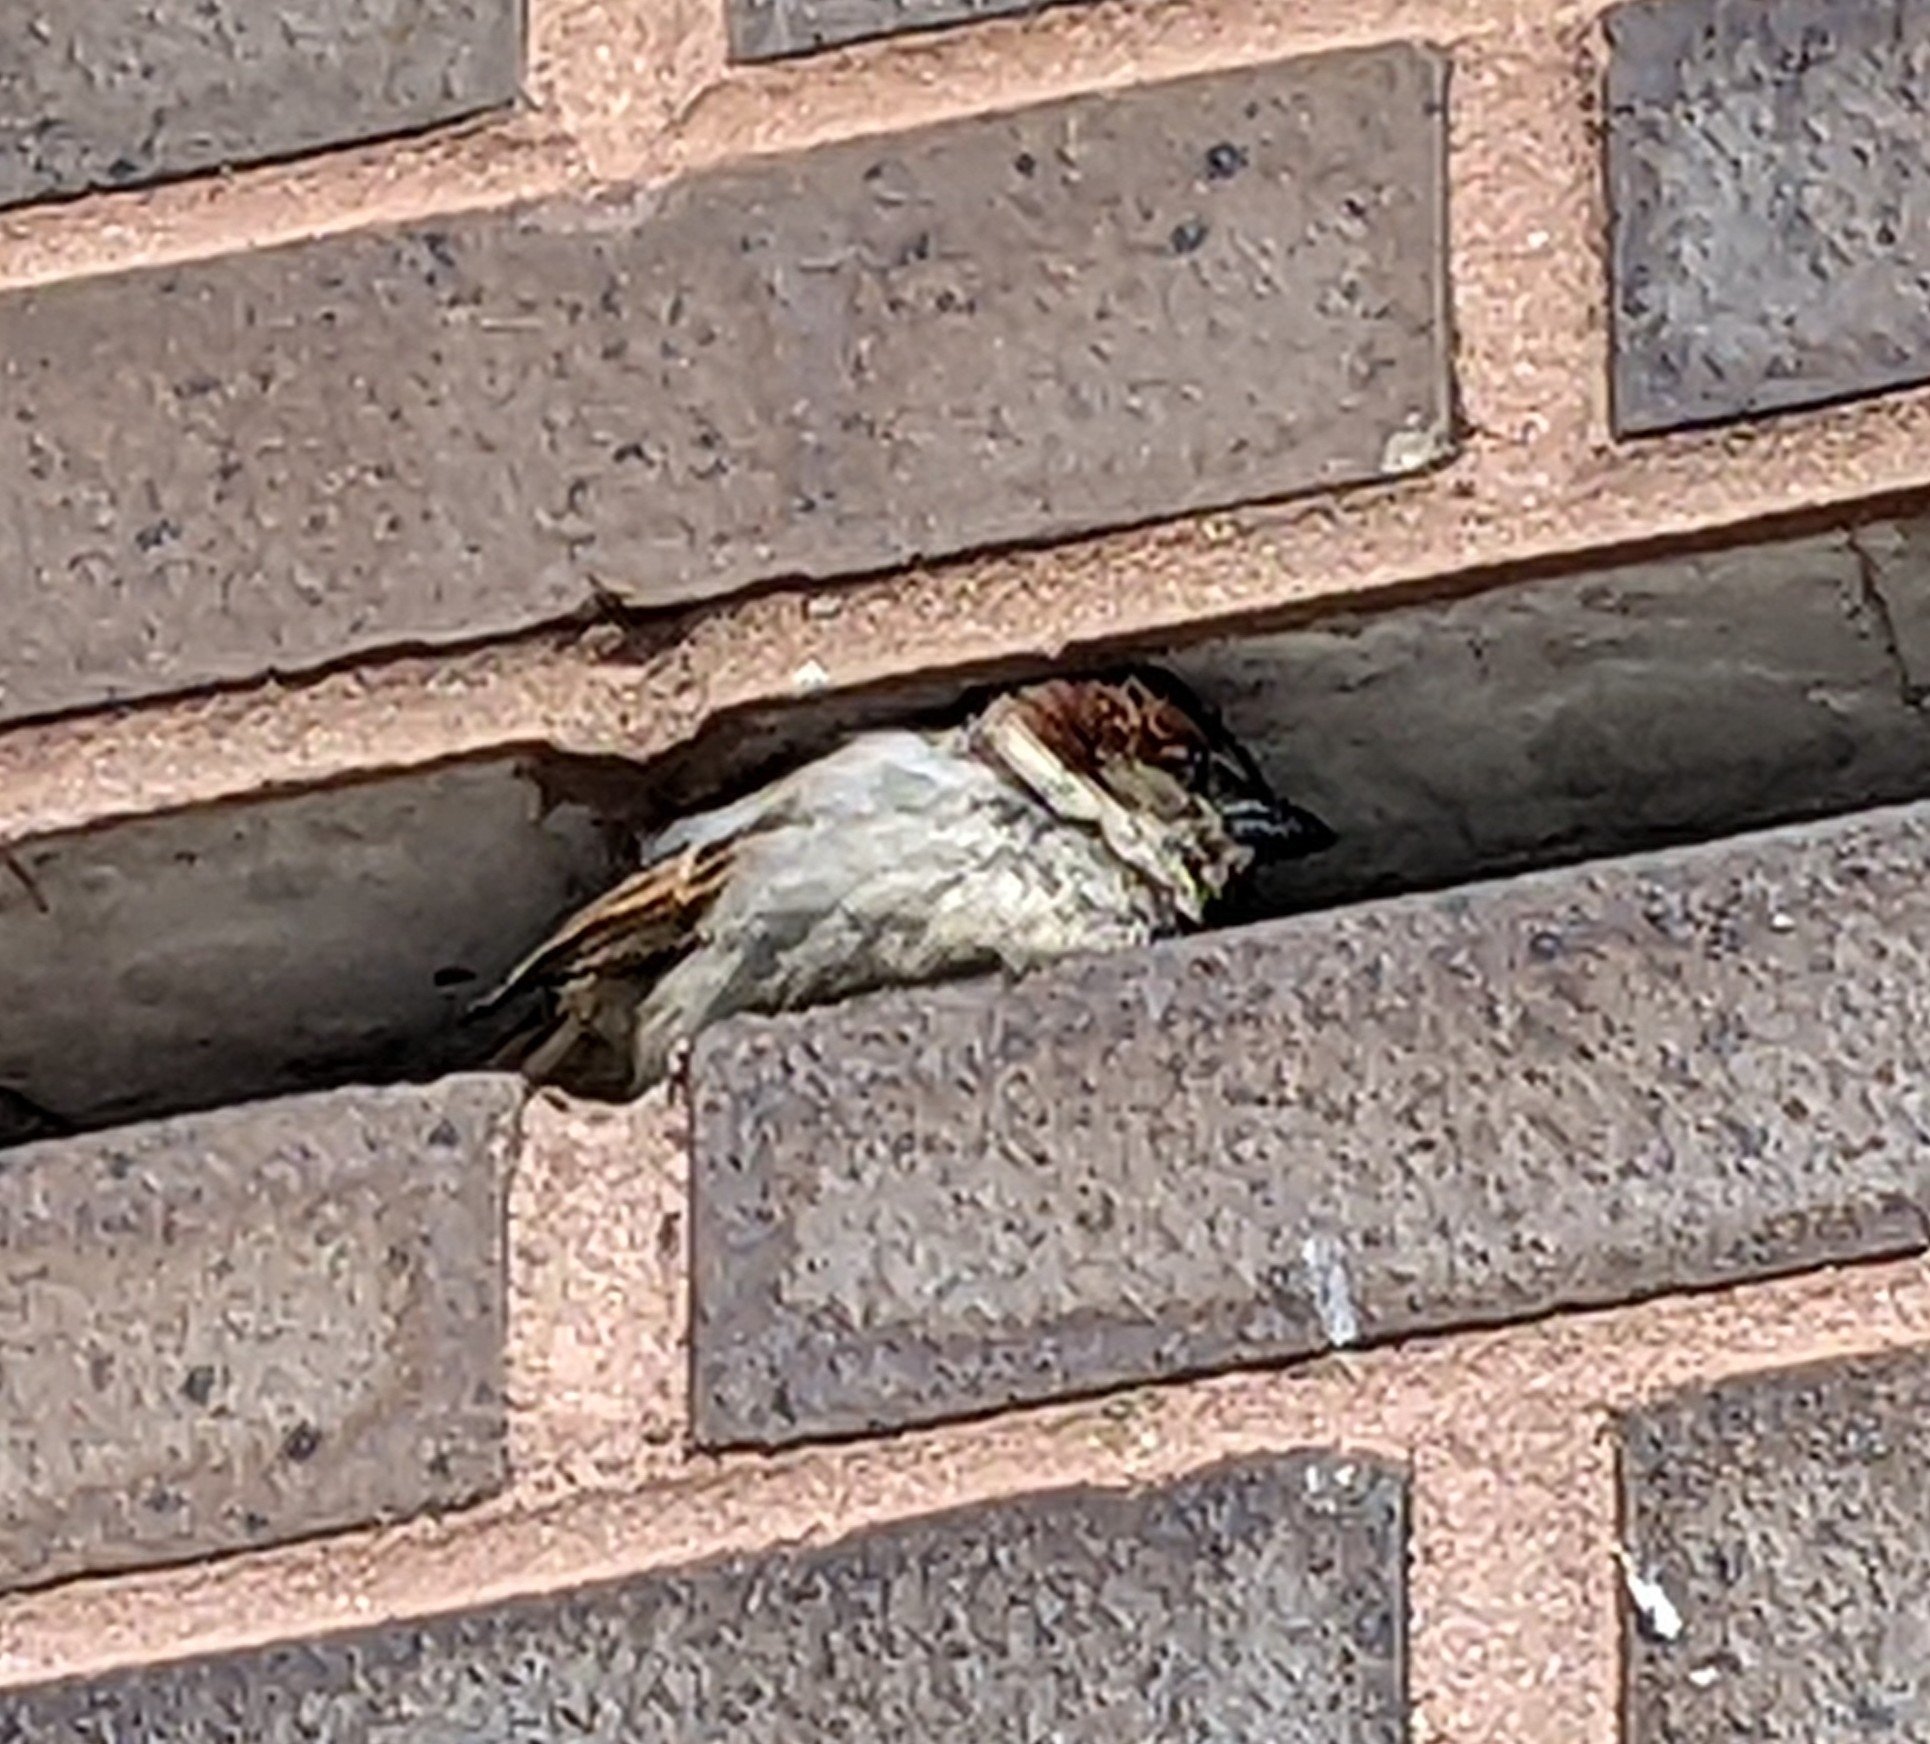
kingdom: Animalia
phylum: Chordata
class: Aves
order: Passeriformes
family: Passeridae
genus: Passer
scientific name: Passer domesticus
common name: House sparrow
